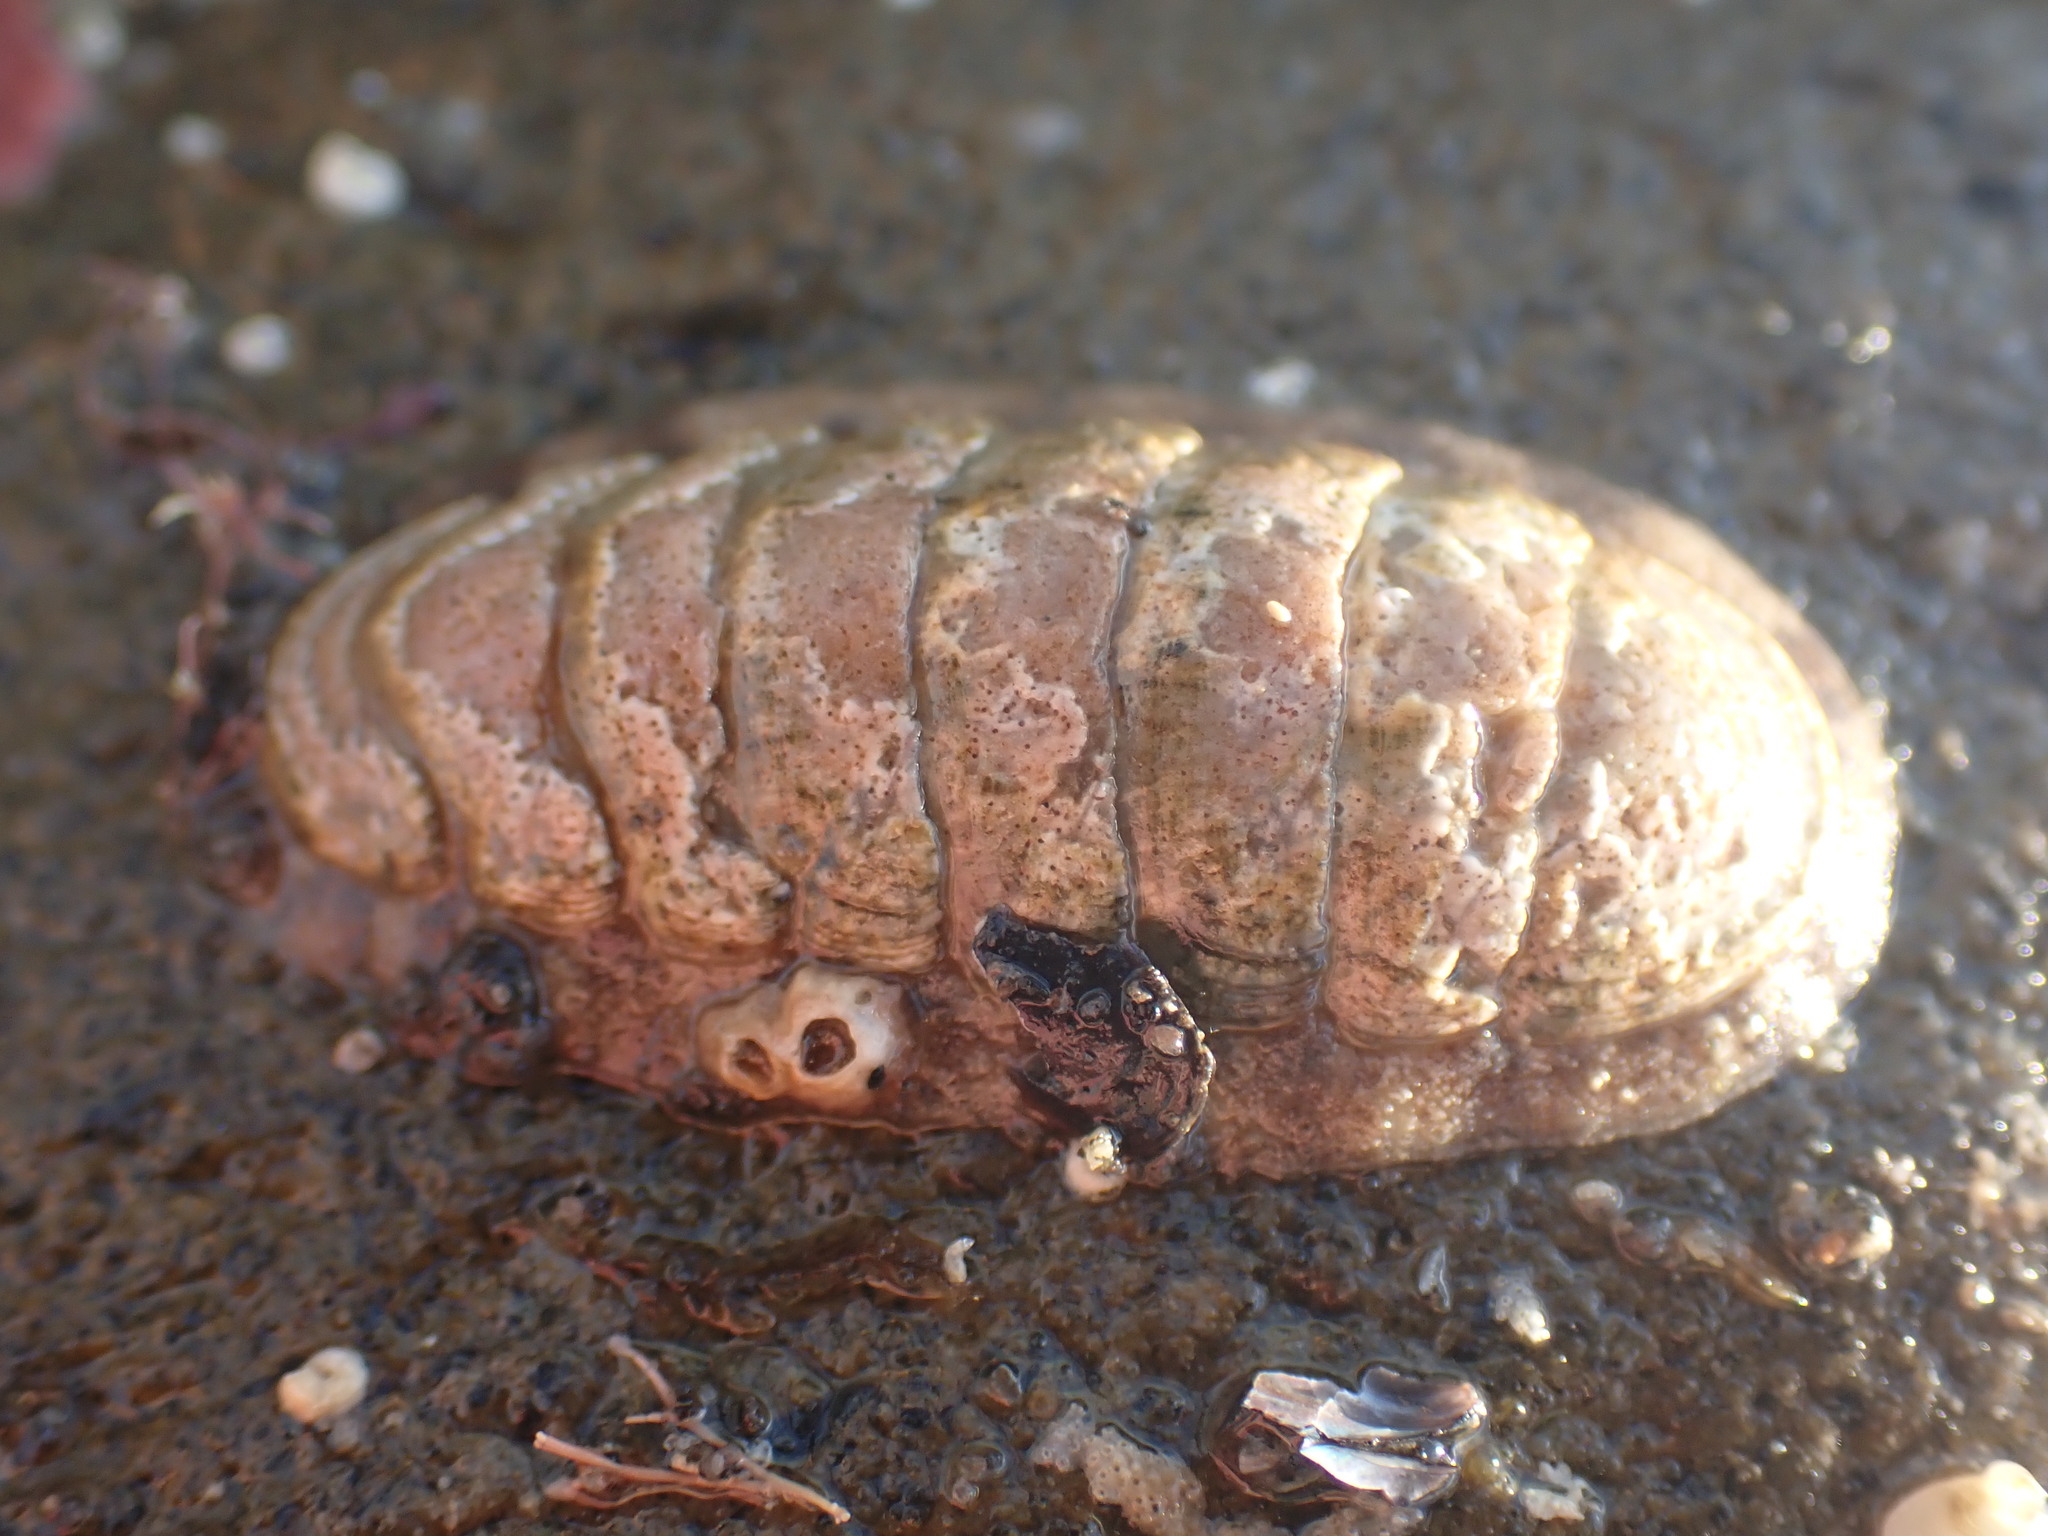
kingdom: Animalia
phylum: Mollusca
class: Polyplacophora
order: Chitonida
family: Ischnochitonidae
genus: Ischnochiton
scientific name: Ischnochiton maorianus
